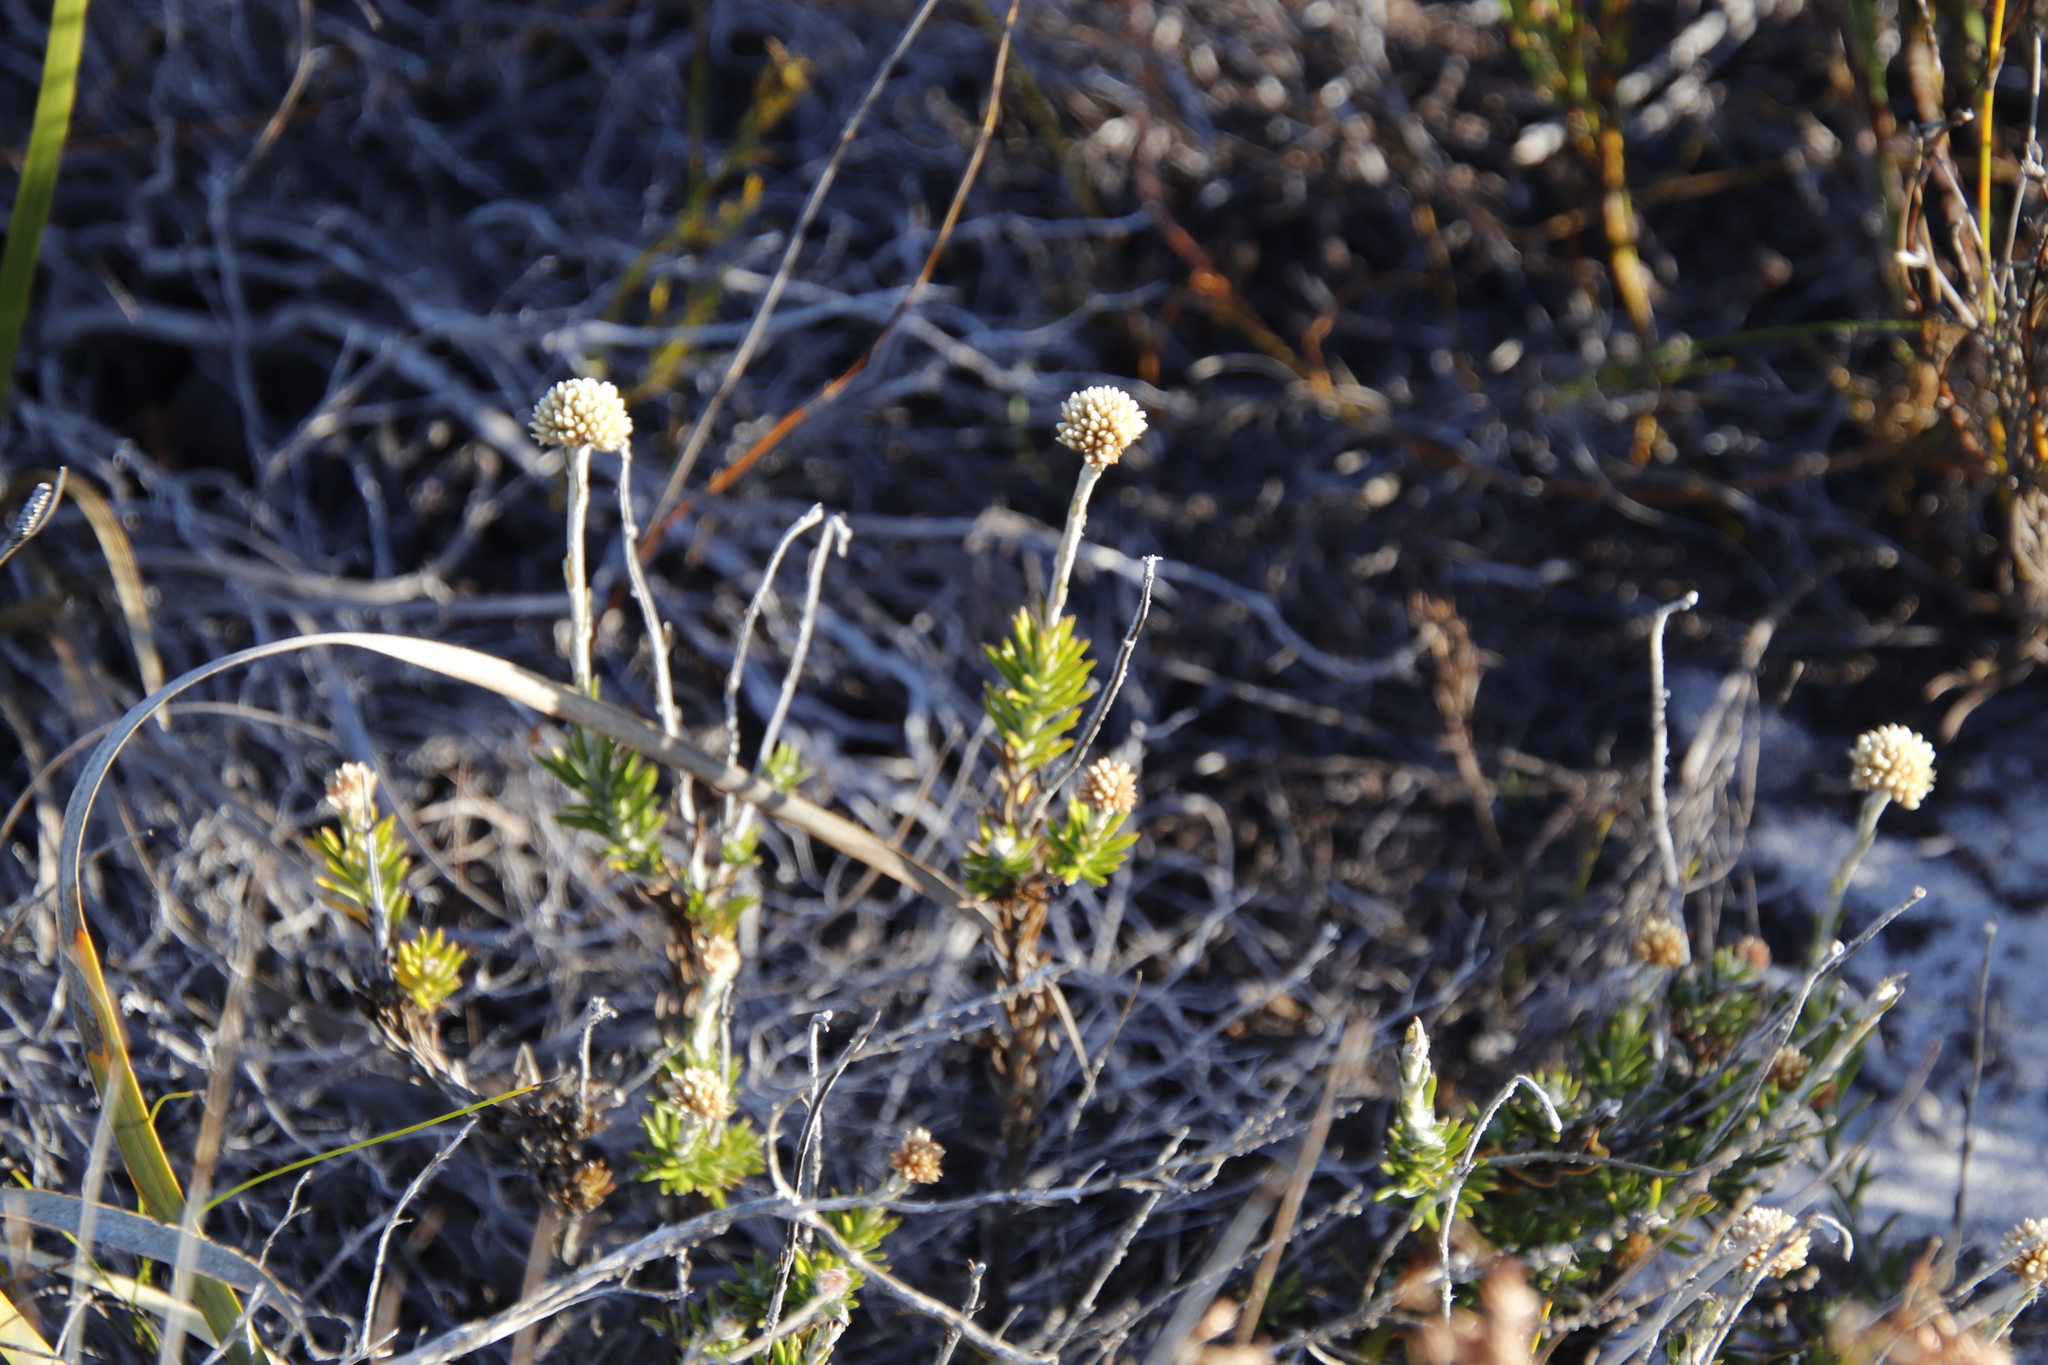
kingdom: Plantae
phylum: Tracheophyta
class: Magnoliopsida
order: Asterales
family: Asteraceae
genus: Anaxeton
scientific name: Anaxeton laeve
